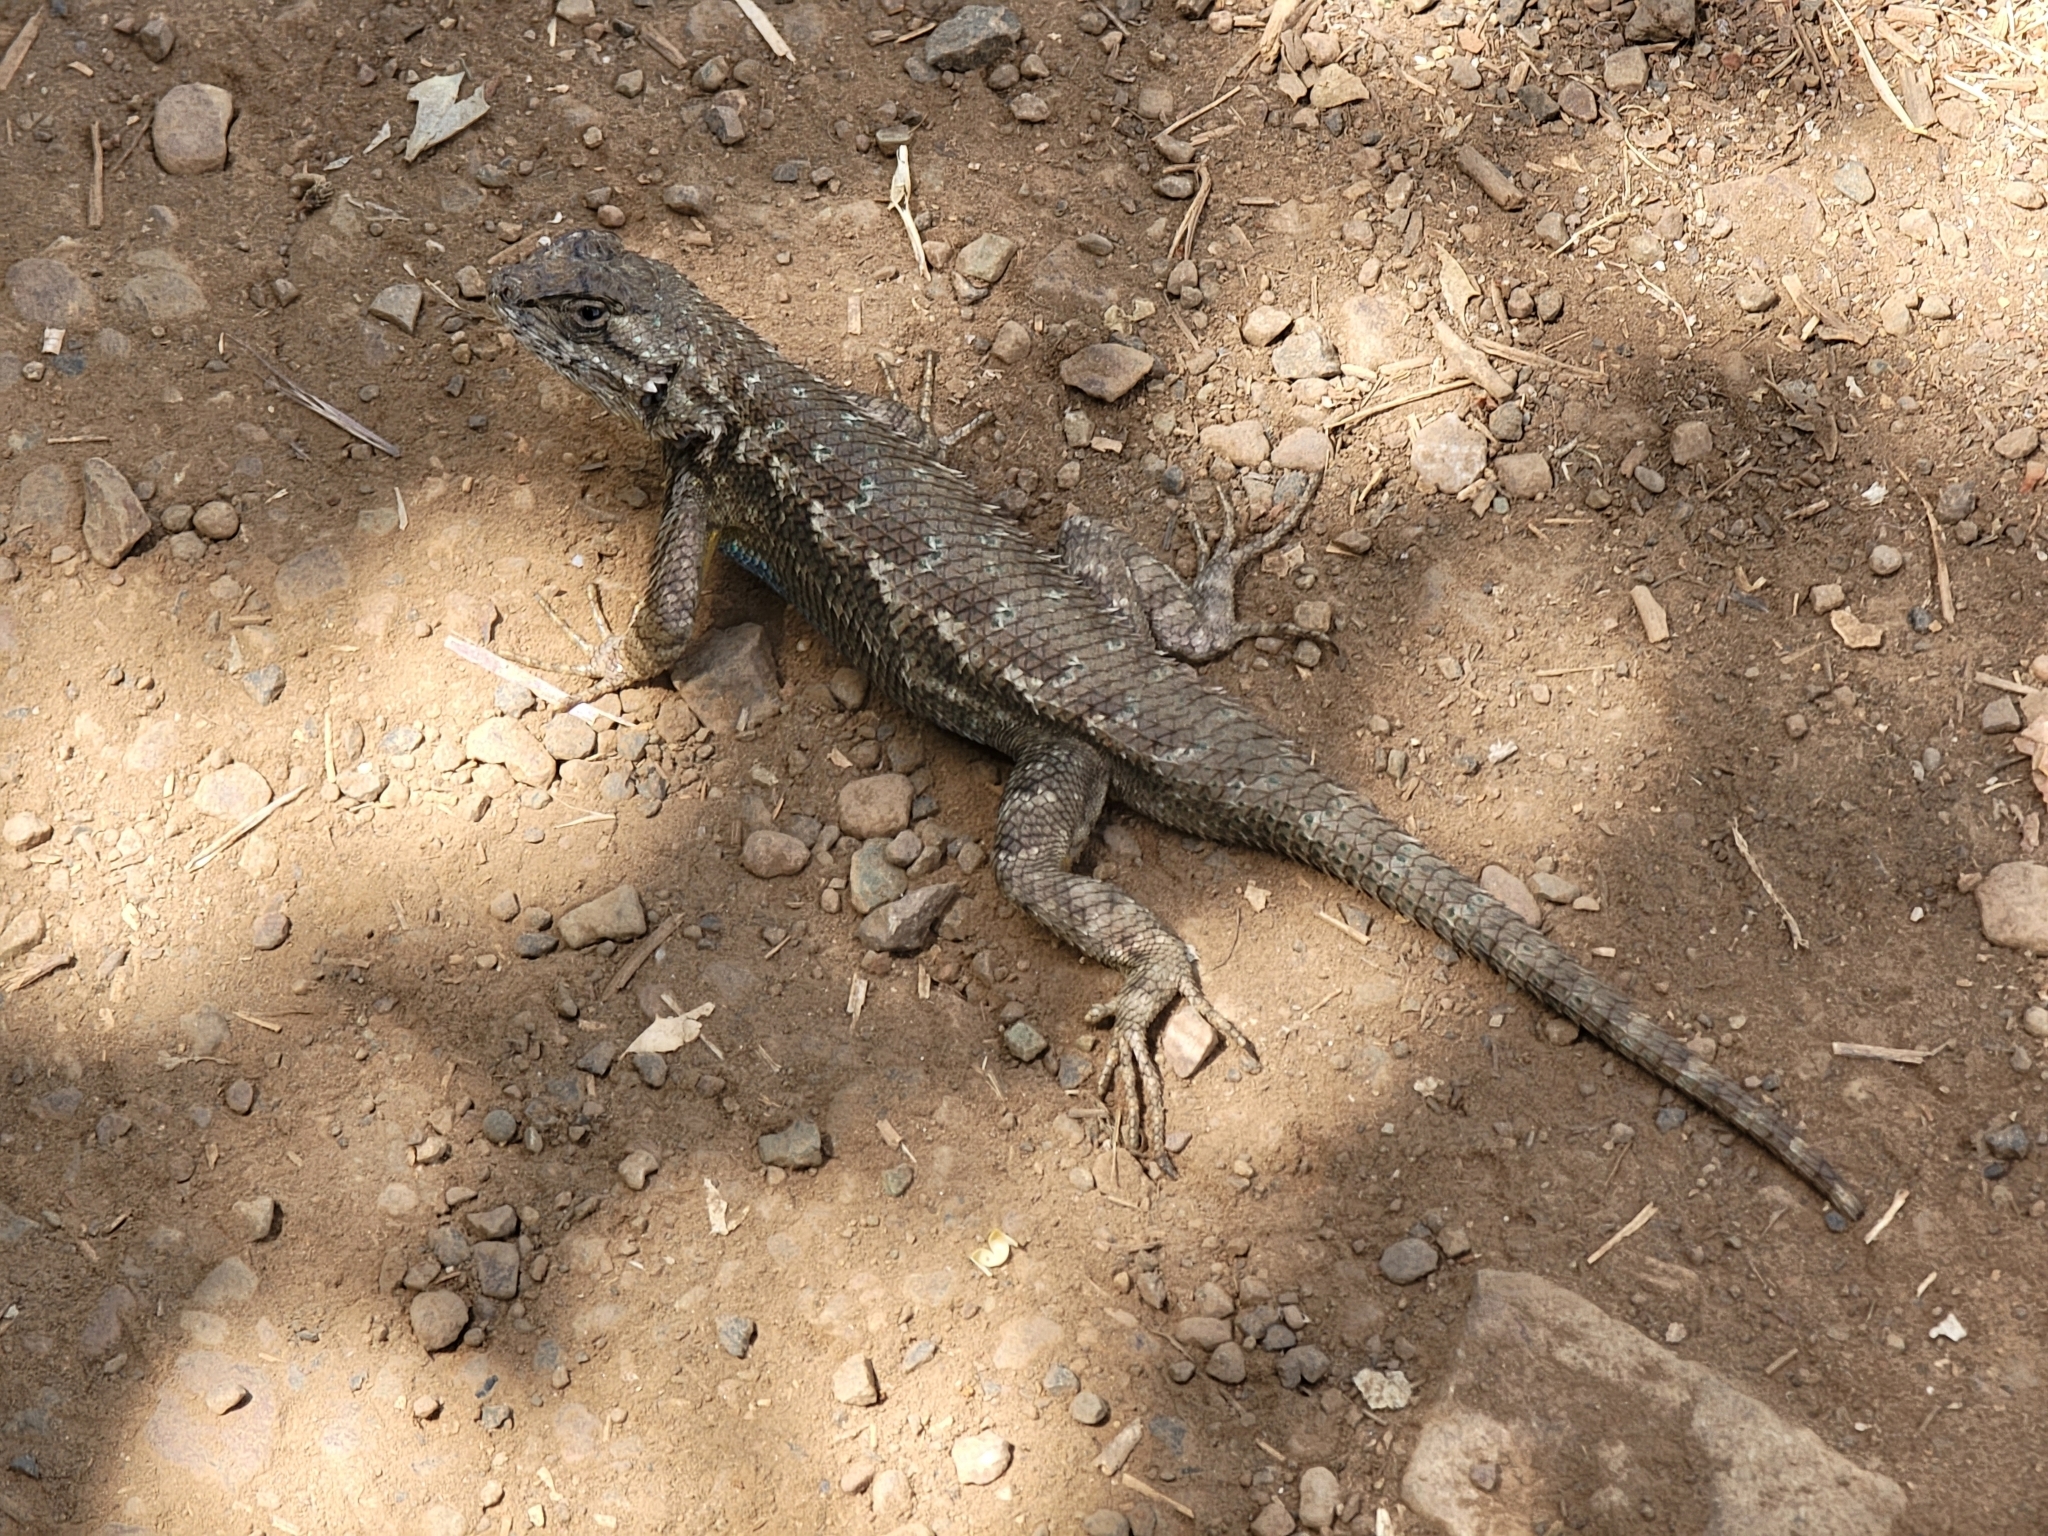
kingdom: Animalia
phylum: Chordata
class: Squamata
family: Phrynosomatidae
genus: Sceloporus
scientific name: Sceloporus occidentalis
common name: Western fence lizard
